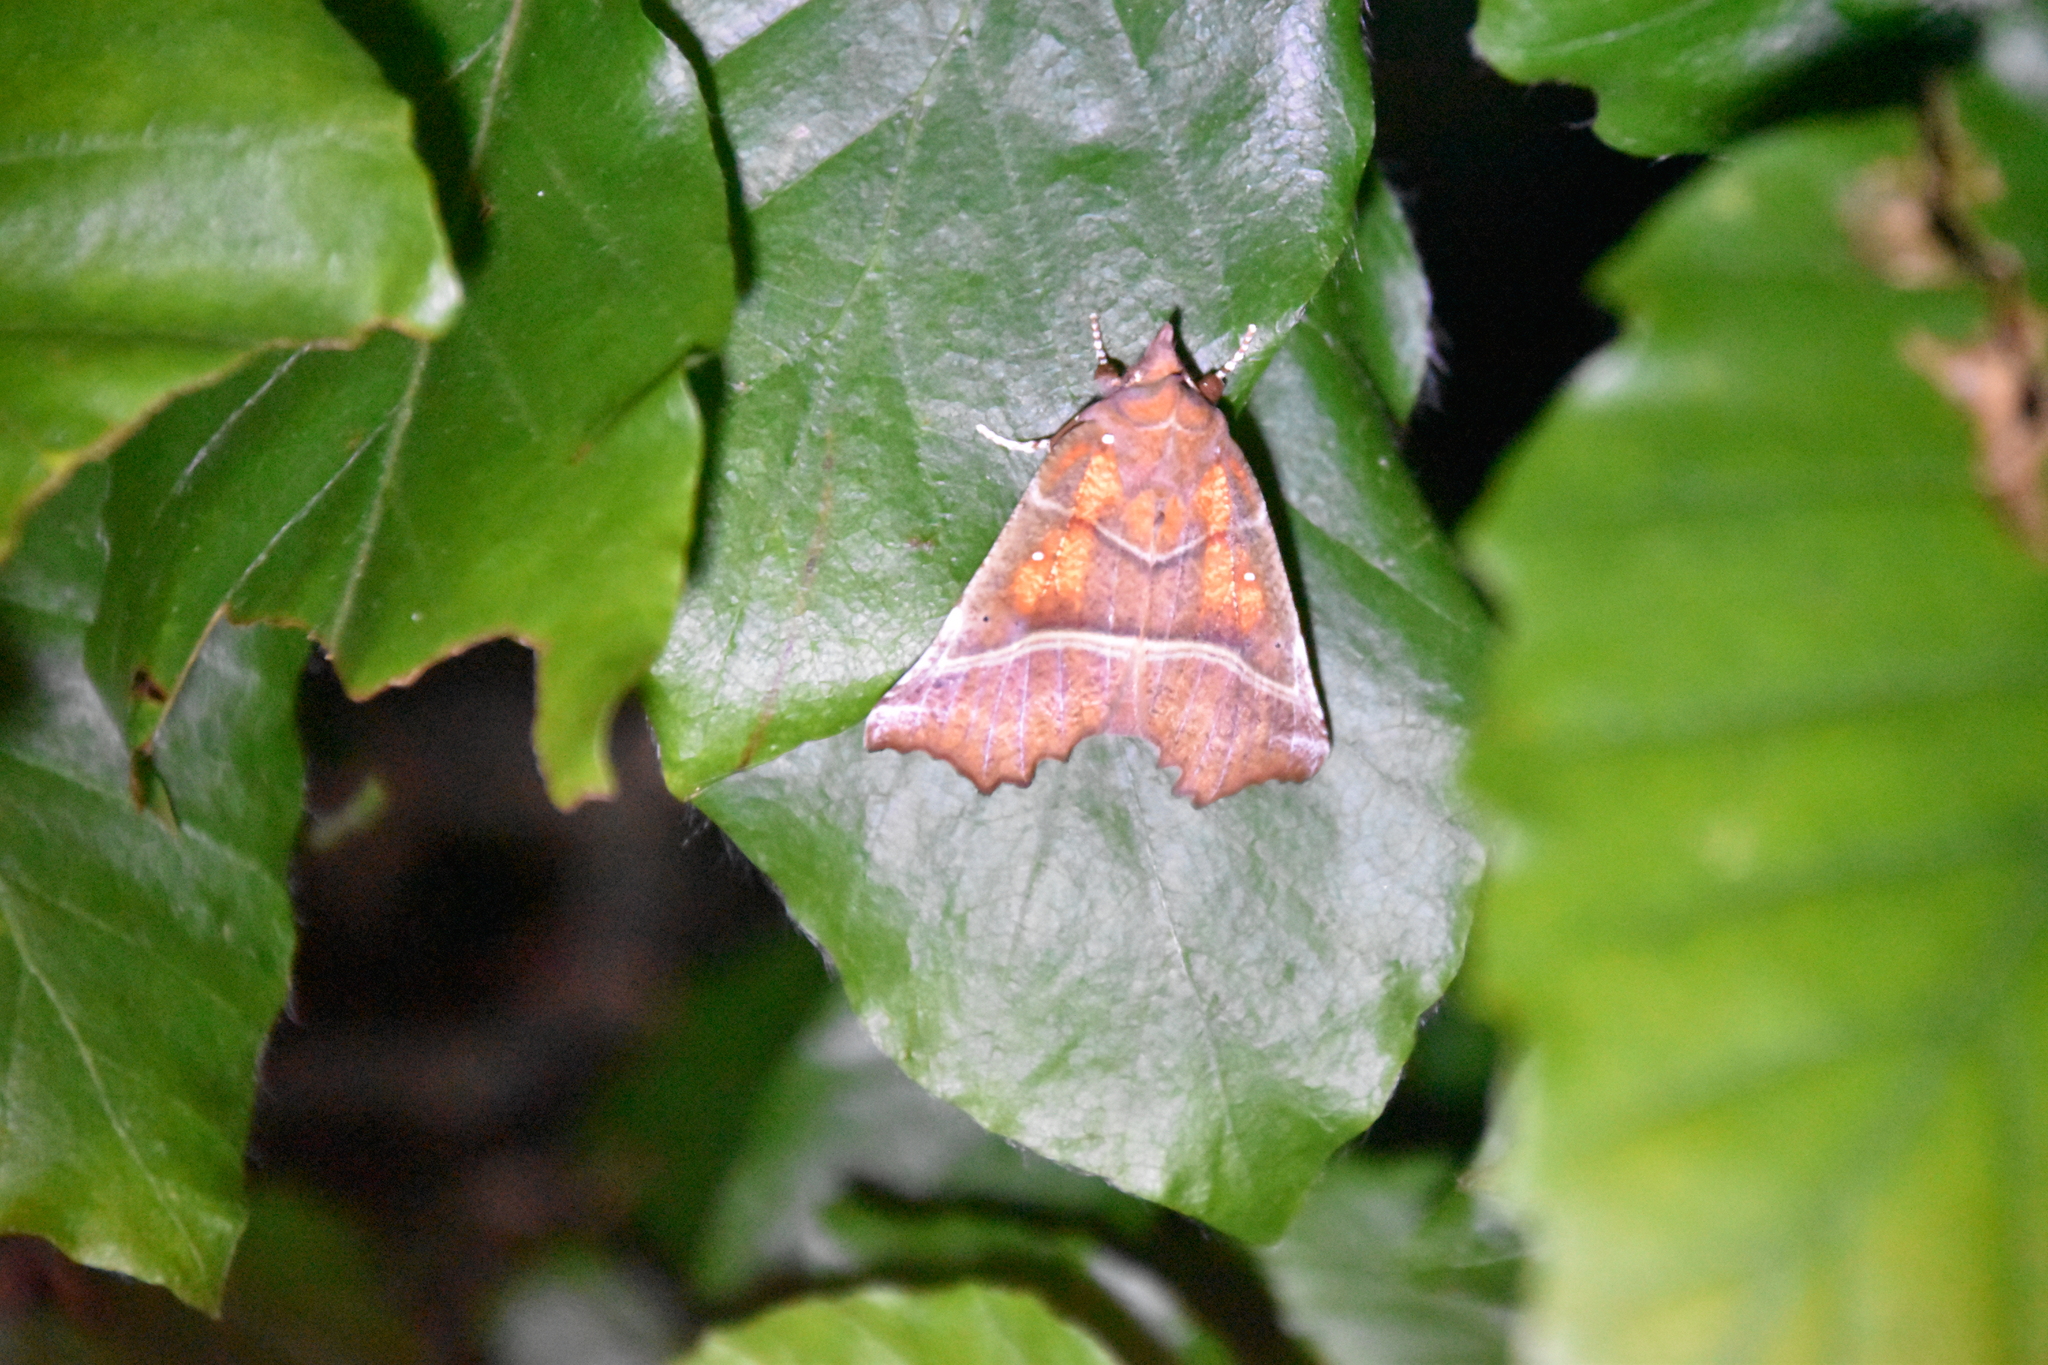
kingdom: Animalia
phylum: Arthropoda
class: Insecta
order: Lepidoptera
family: Erebidae
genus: Scoliopteryx
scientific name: Scoliopteryx libatrix
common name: Herald
